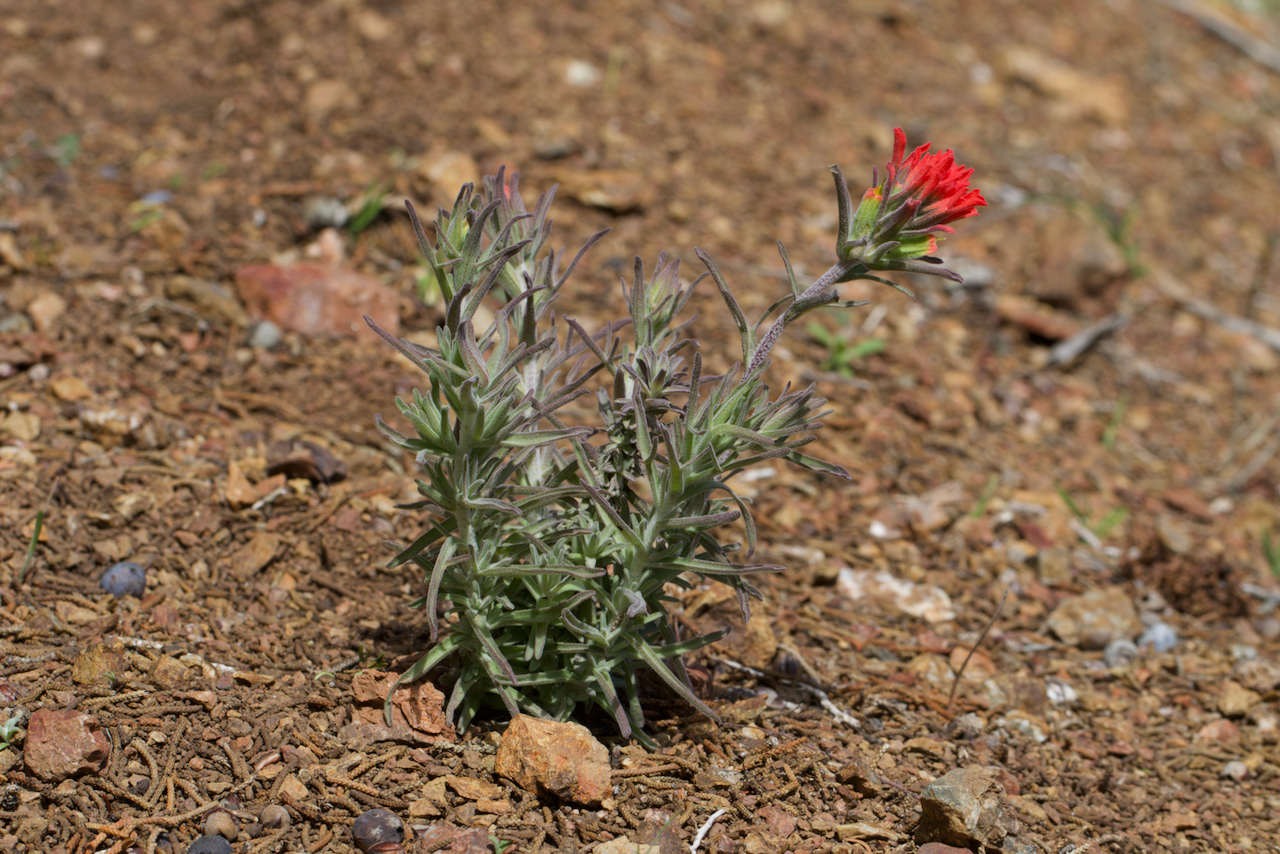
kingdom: Plantae
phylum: Tracheophyta
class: Magnoliopsida
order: Lamiales
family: Orobanchaceae
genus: Castilleja
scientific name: Castilleja foliolosa
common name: Woolly indian paintbrush
